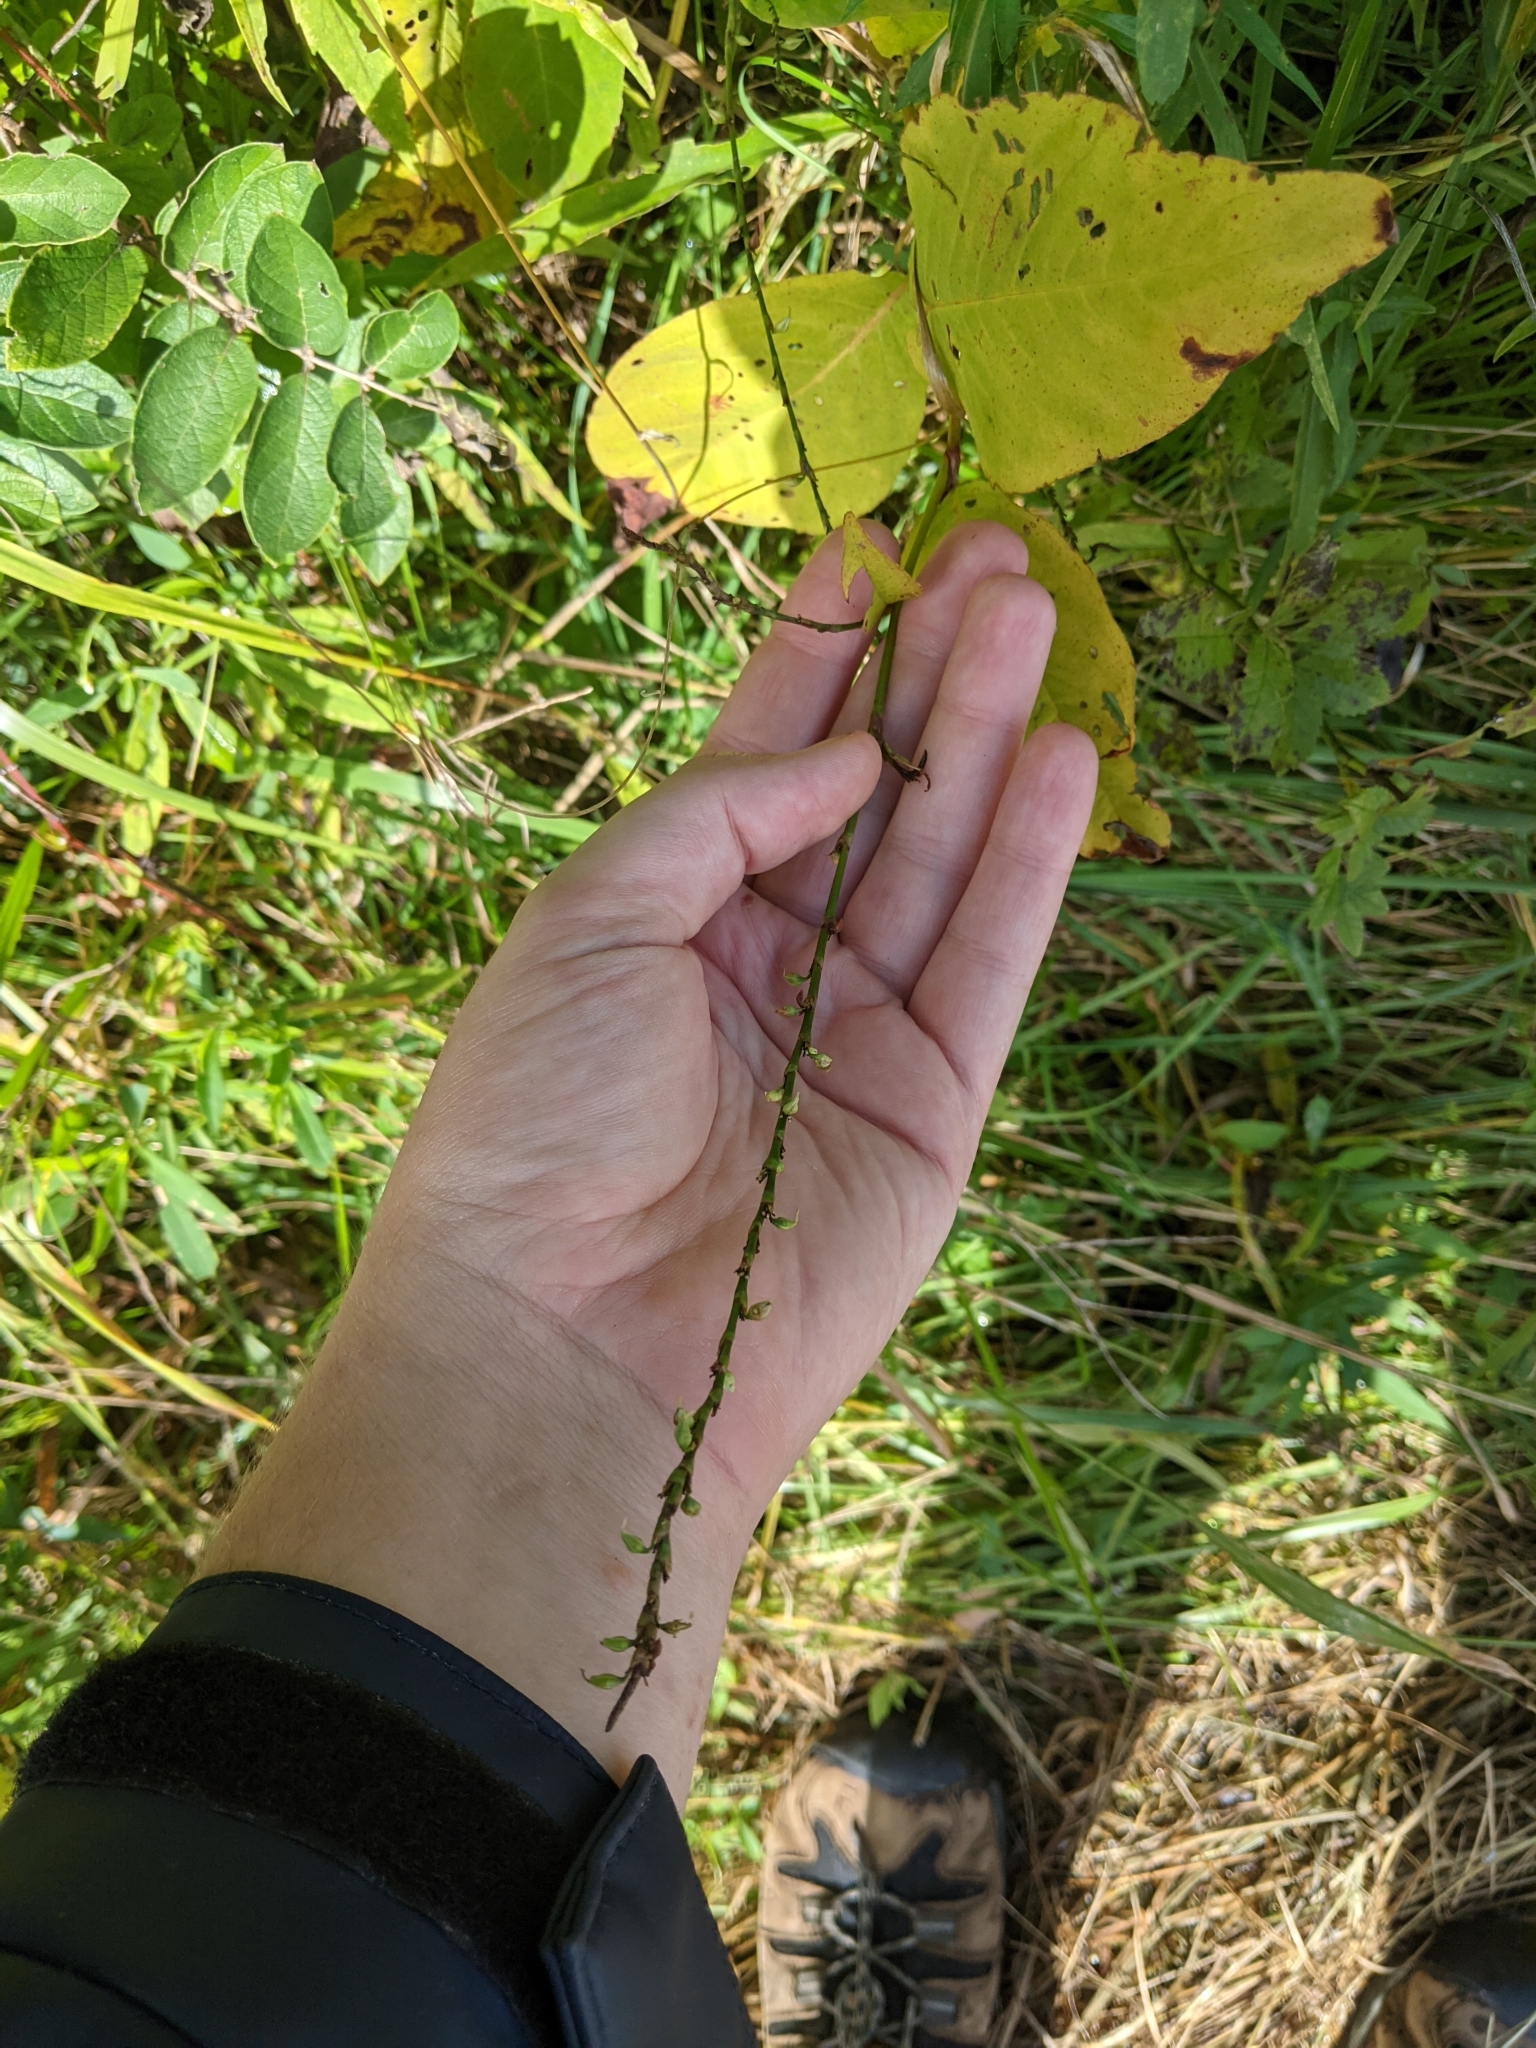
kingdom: Plantae
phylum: Tracheophyta
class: Magnoliopsida
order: Caryophyllales
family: Polygonaceae
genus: Persicaria
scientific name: Persicaria virginiana
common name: Jumpseed
